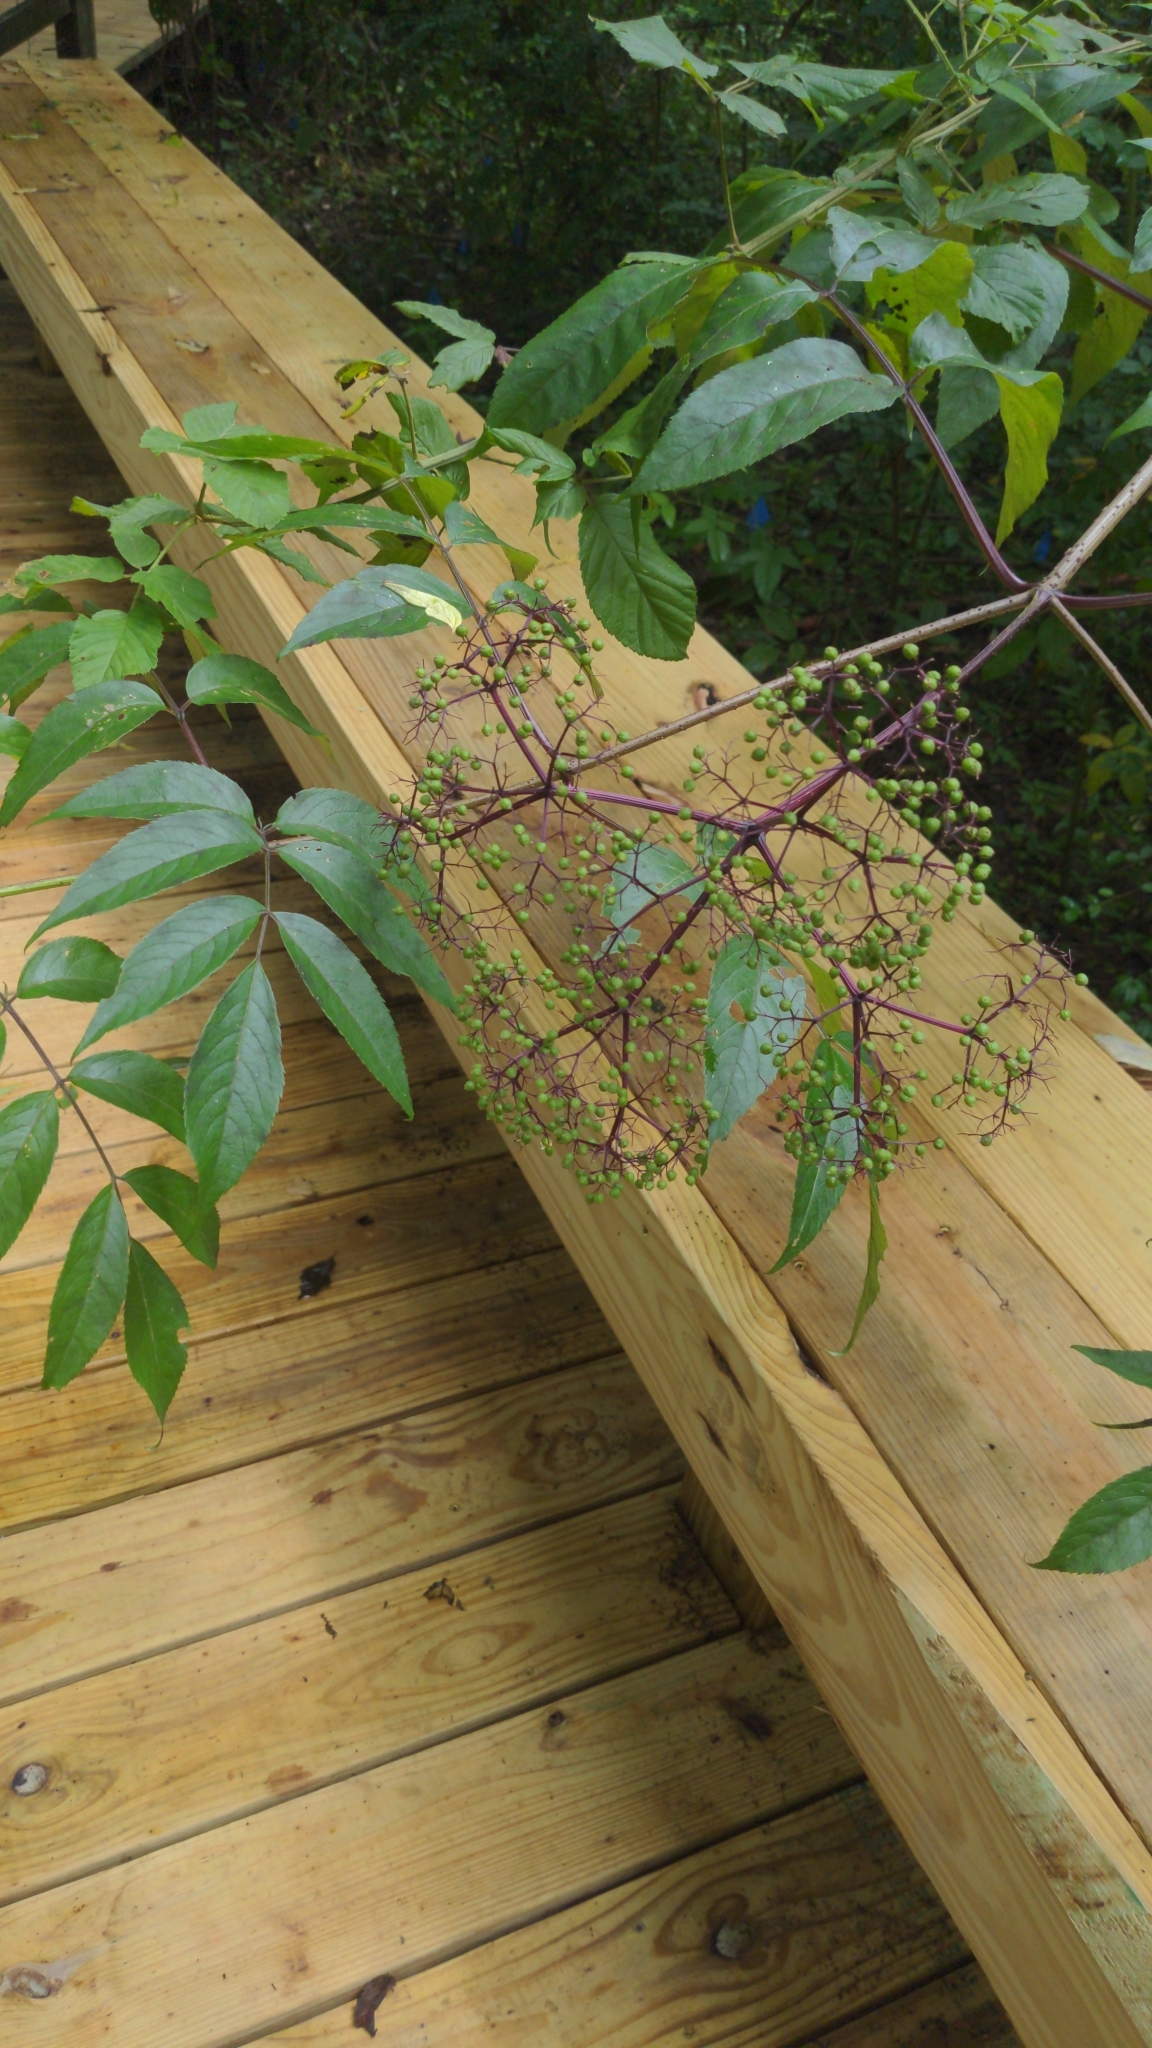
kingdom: Plantae
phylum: Tracheophyta
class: Magnoliopsida
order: Dipsacales
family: Viburnaceae
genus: Sambucus
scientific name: Sambucus canadensis
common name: American elder
